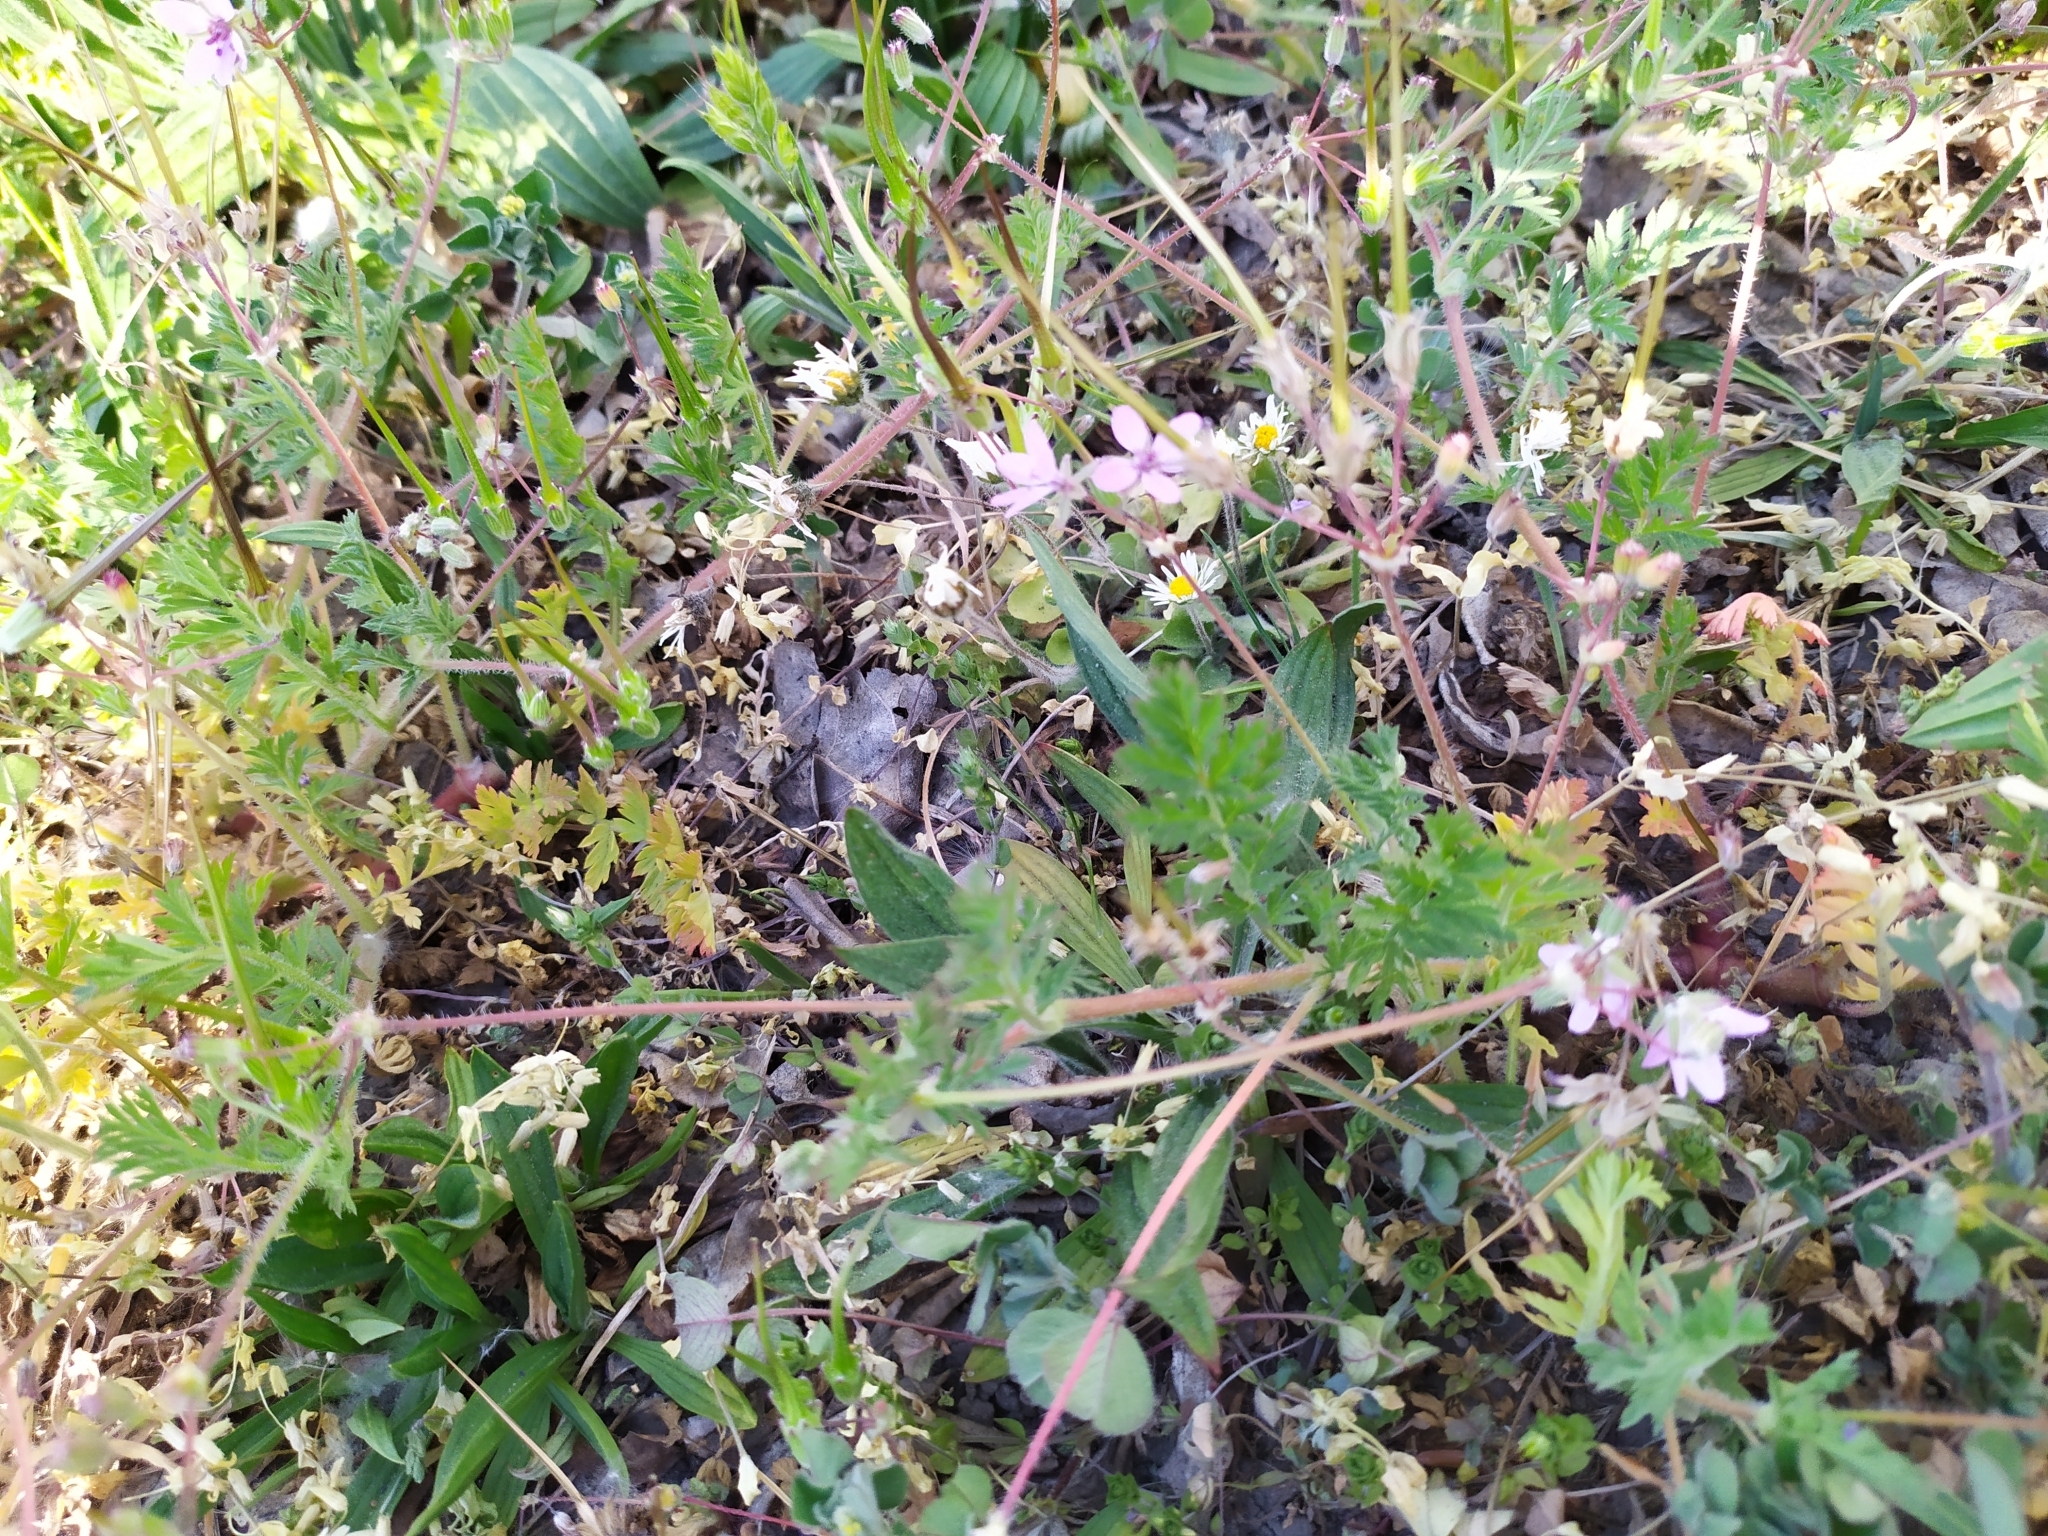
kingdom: Plantae
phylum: Tracheophyta
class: Magnoliopsida
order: Geraniales
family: Geraniaceae
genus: Erodium
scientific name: Erodium cicutarium
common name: Common stork's-bill
